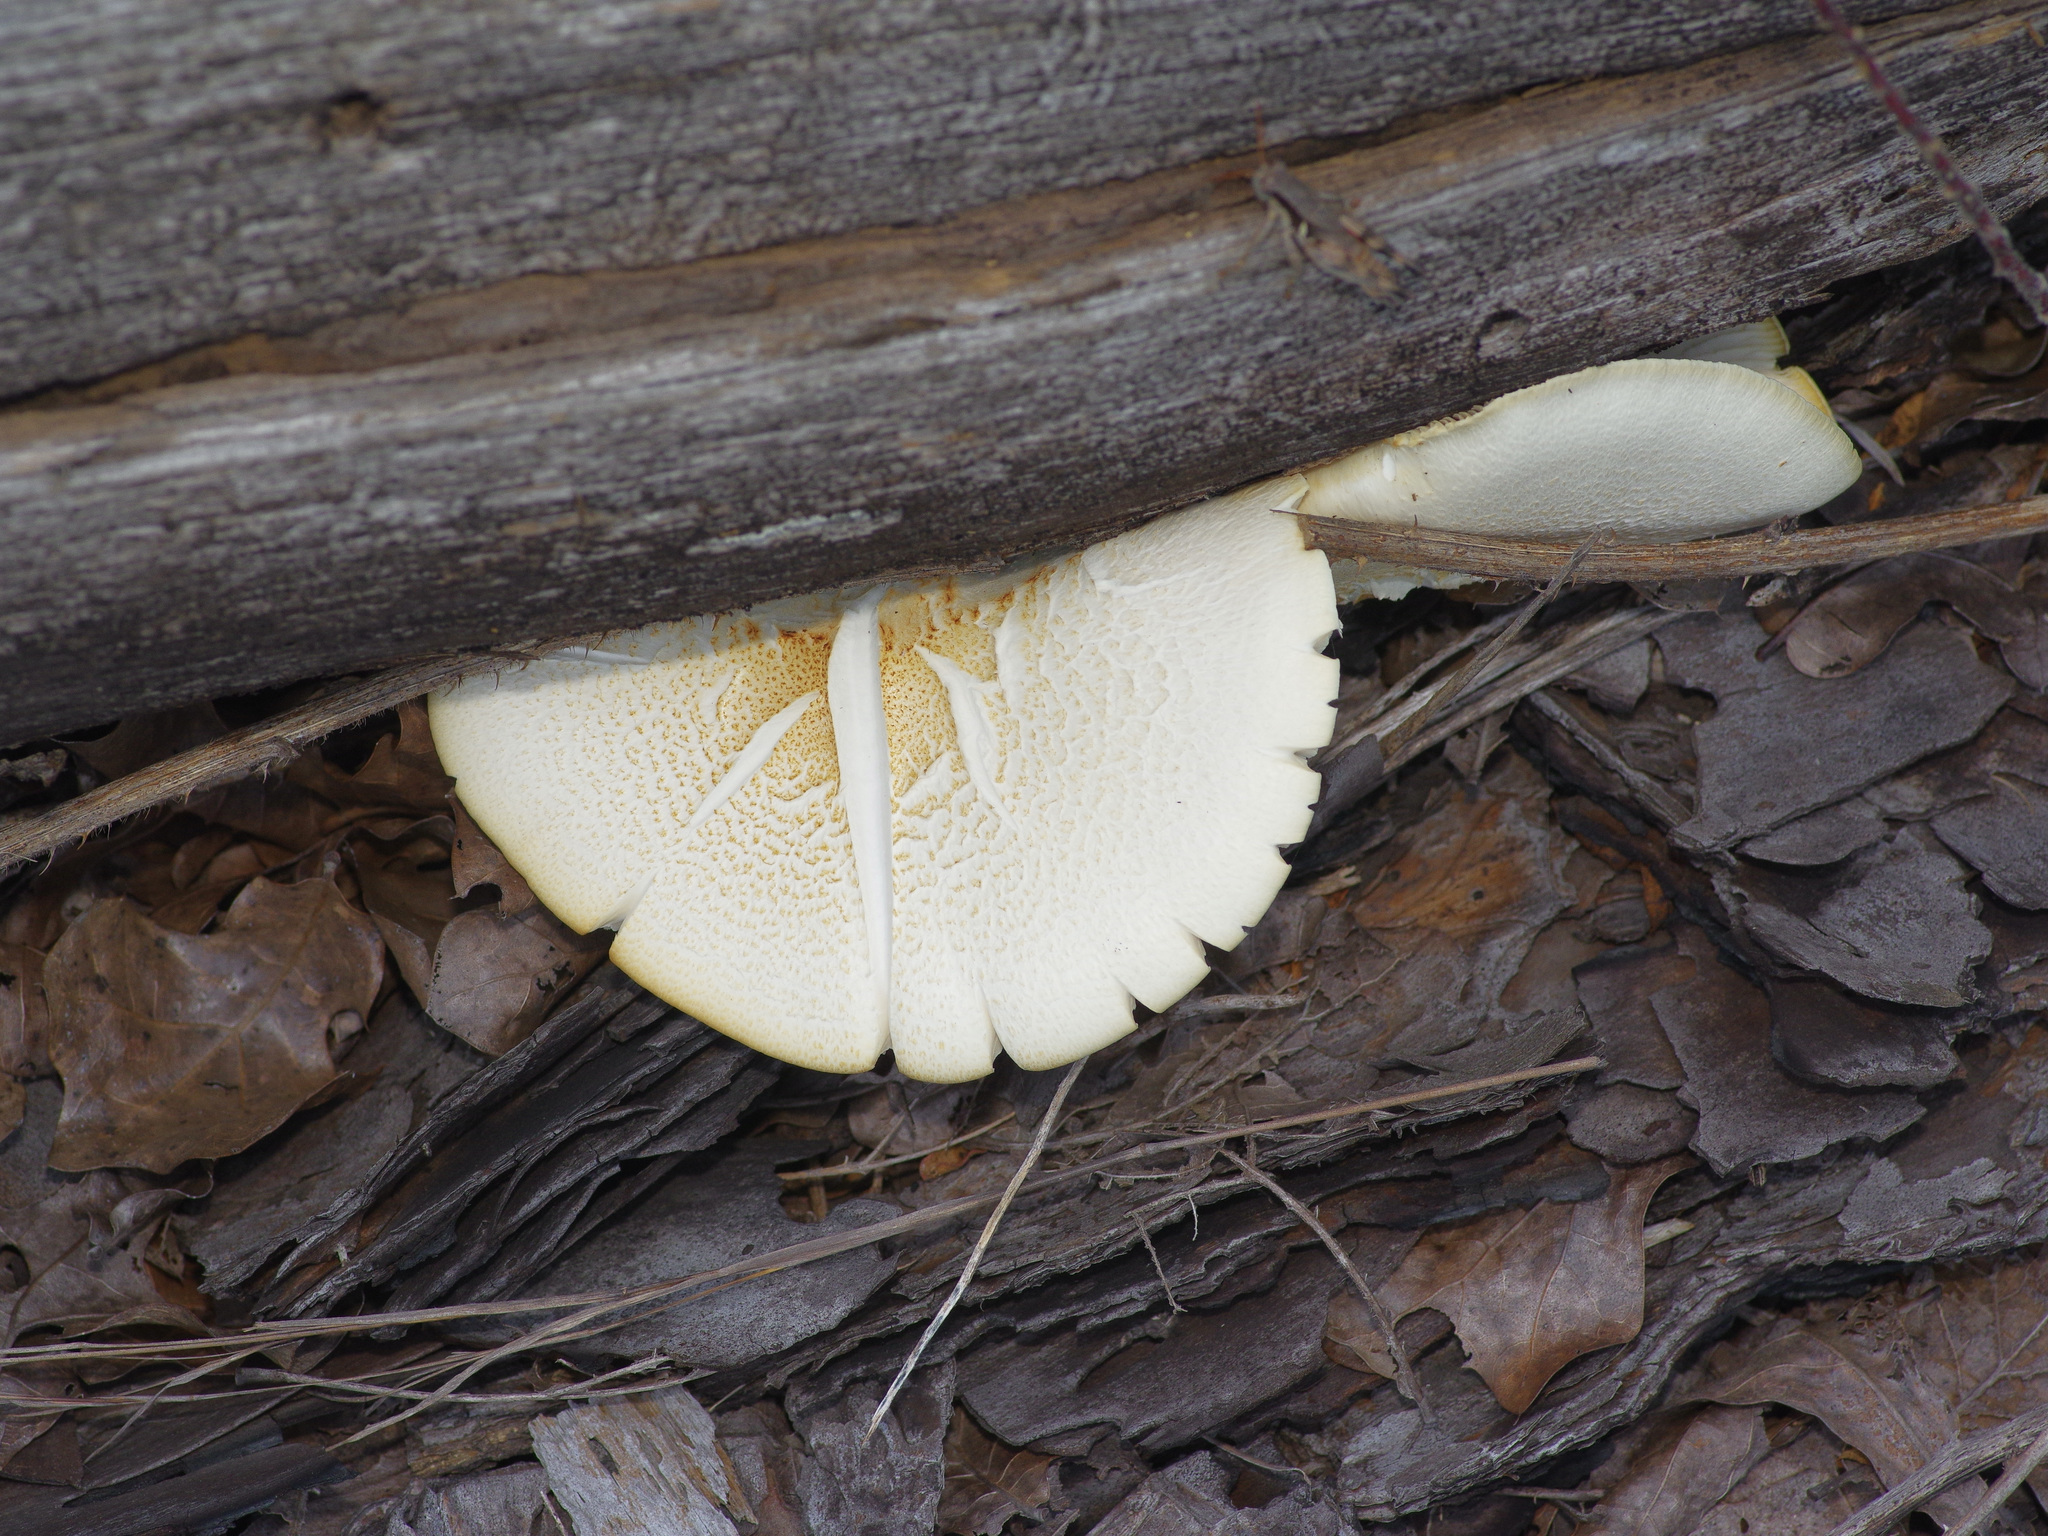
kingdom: Fungi
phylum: Basidiomycota
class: Agaricomycetes
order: Gloeophyllales
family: Gloeophyllaceae
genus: Neolentinus
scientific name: Neolentinus lepideus
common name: Scaly sawgill
